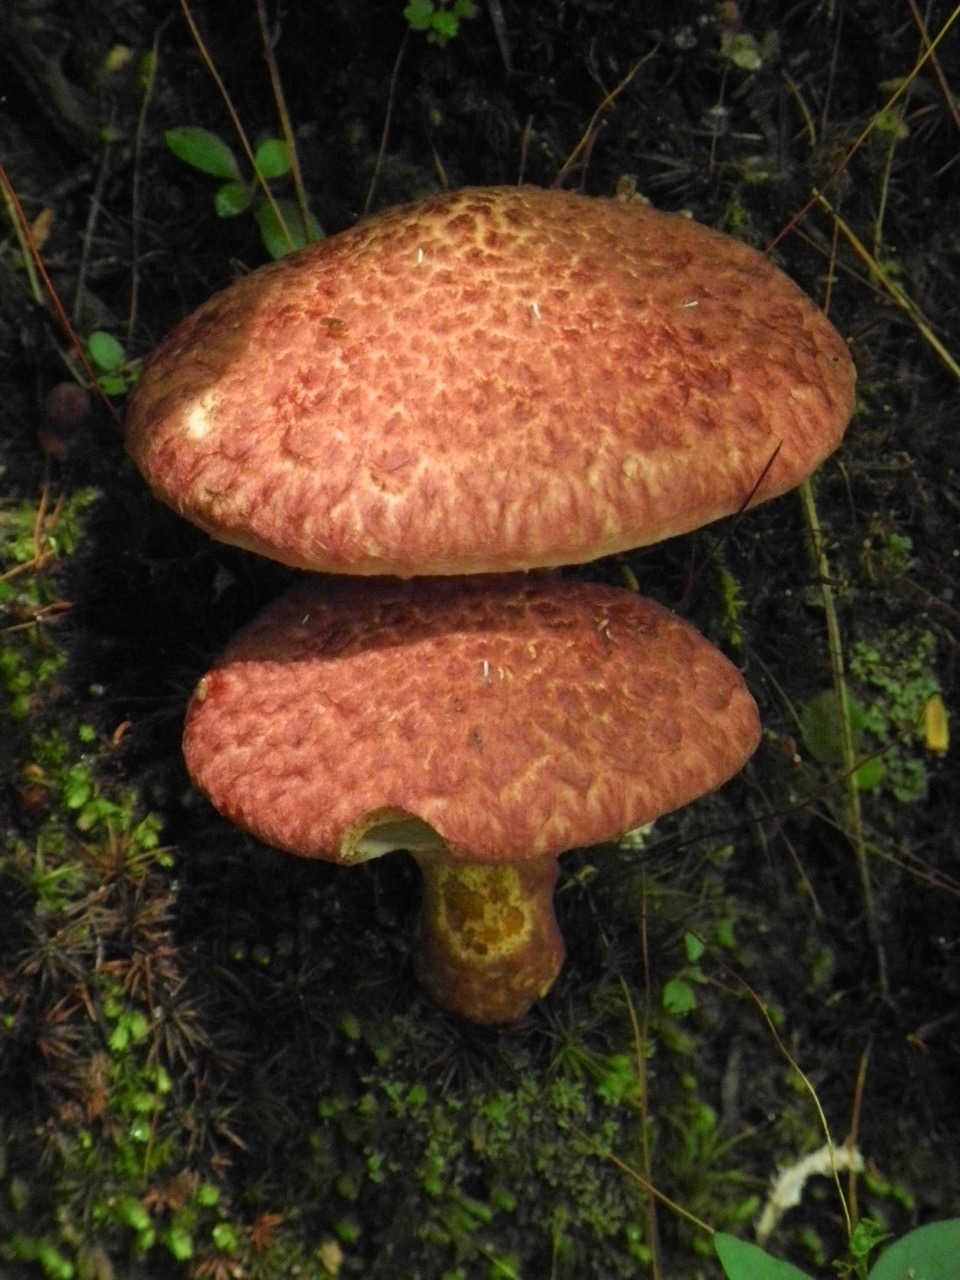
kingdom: Fungi
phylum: Basidiomycota
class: Agaricomycetes
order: Boletales
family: Suillaceae
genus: Suillus
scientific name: Suillus spraguei
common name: Painted suillus
